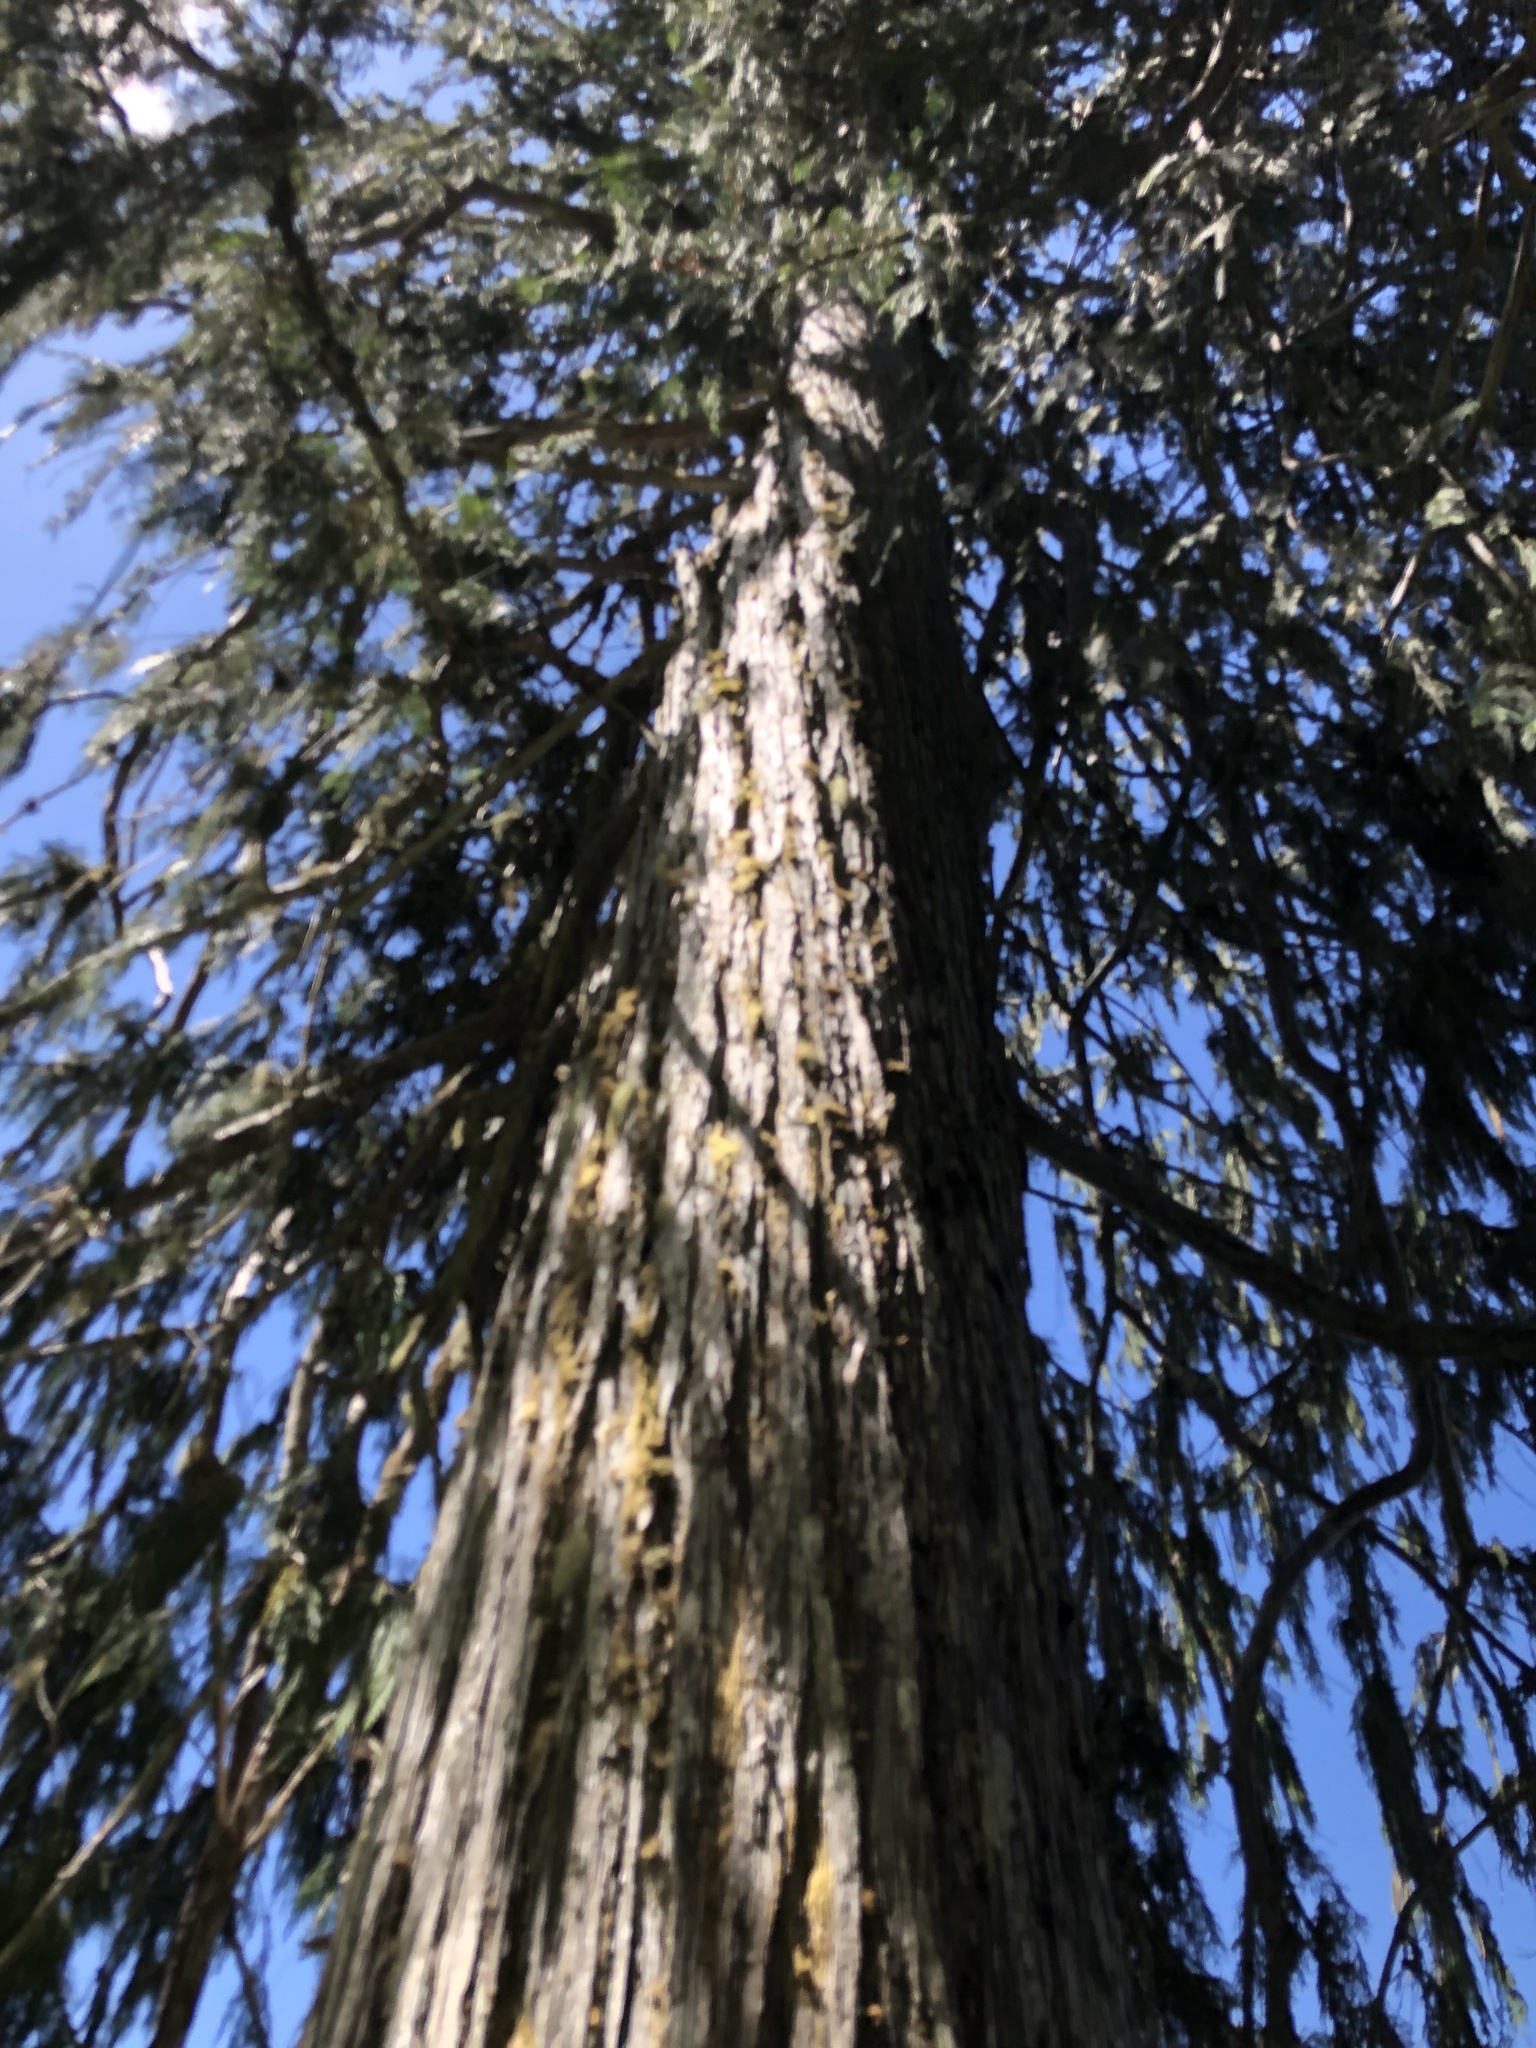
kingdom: Plantae
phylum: Tracheophyta
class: Pinopsida
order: Pinales
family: Cupressaceae
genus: Xanthocyparis
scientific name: Xanthocyparis nootkatensis
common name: Nootka cypress
